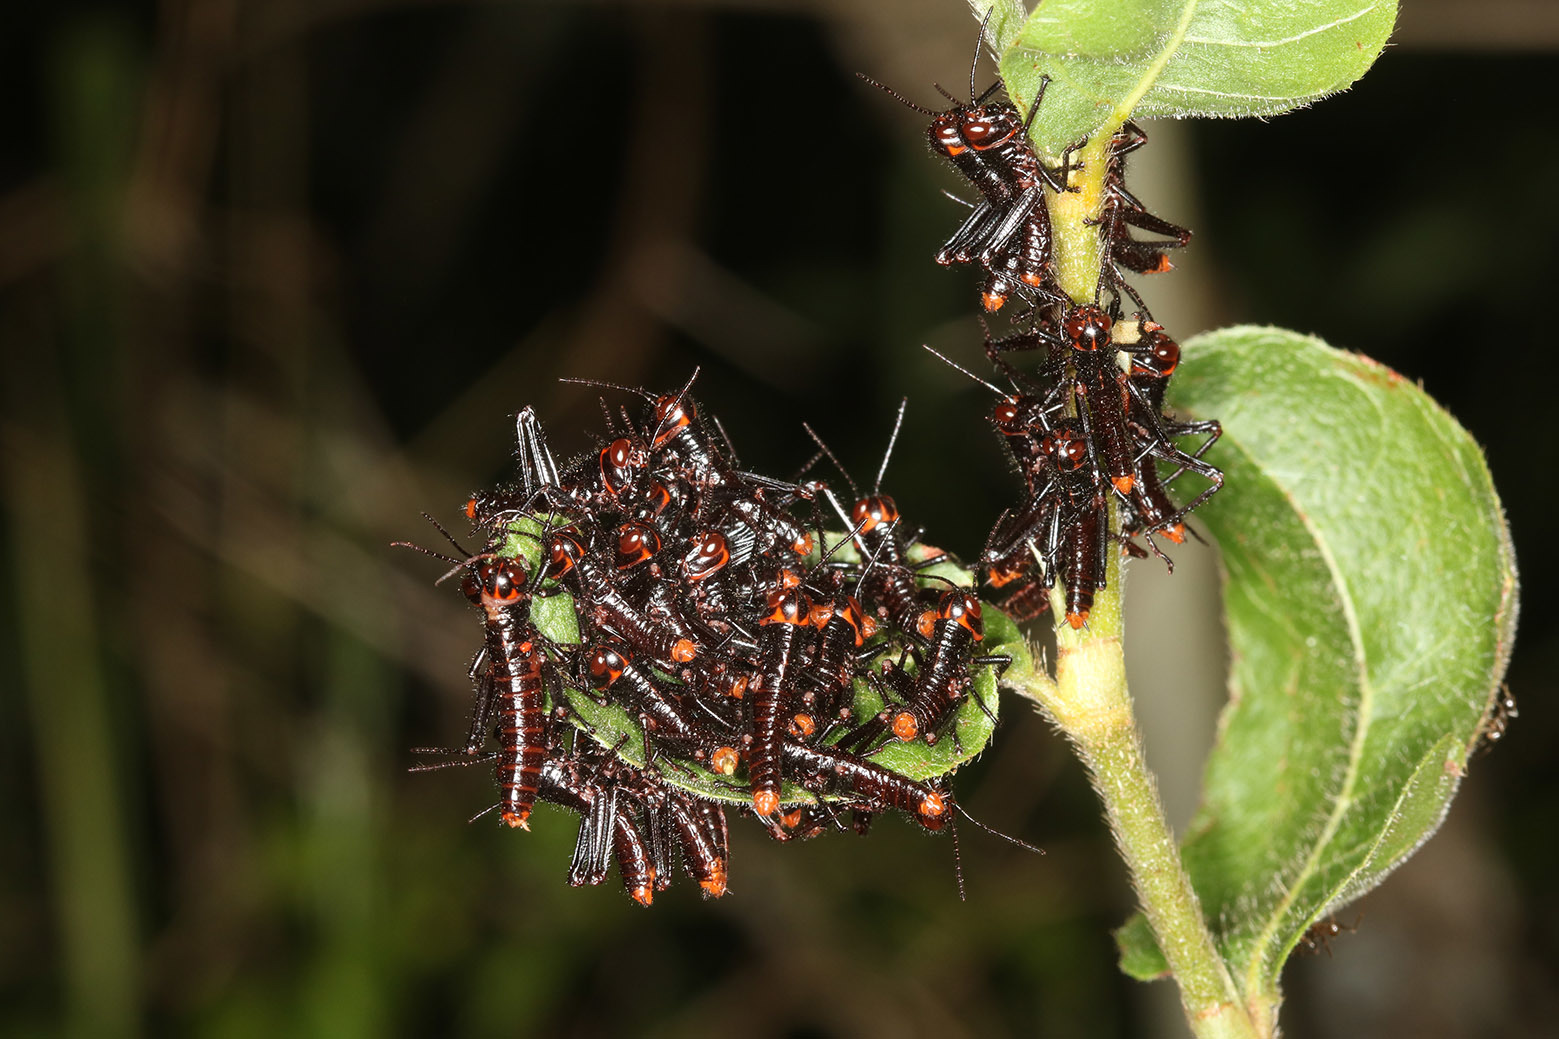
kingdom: Animalia
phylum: Arthropoda
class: Insecta
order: Orthoptera
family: Romaleidae
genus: Tropidacris
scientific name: Tropidacris collaris
